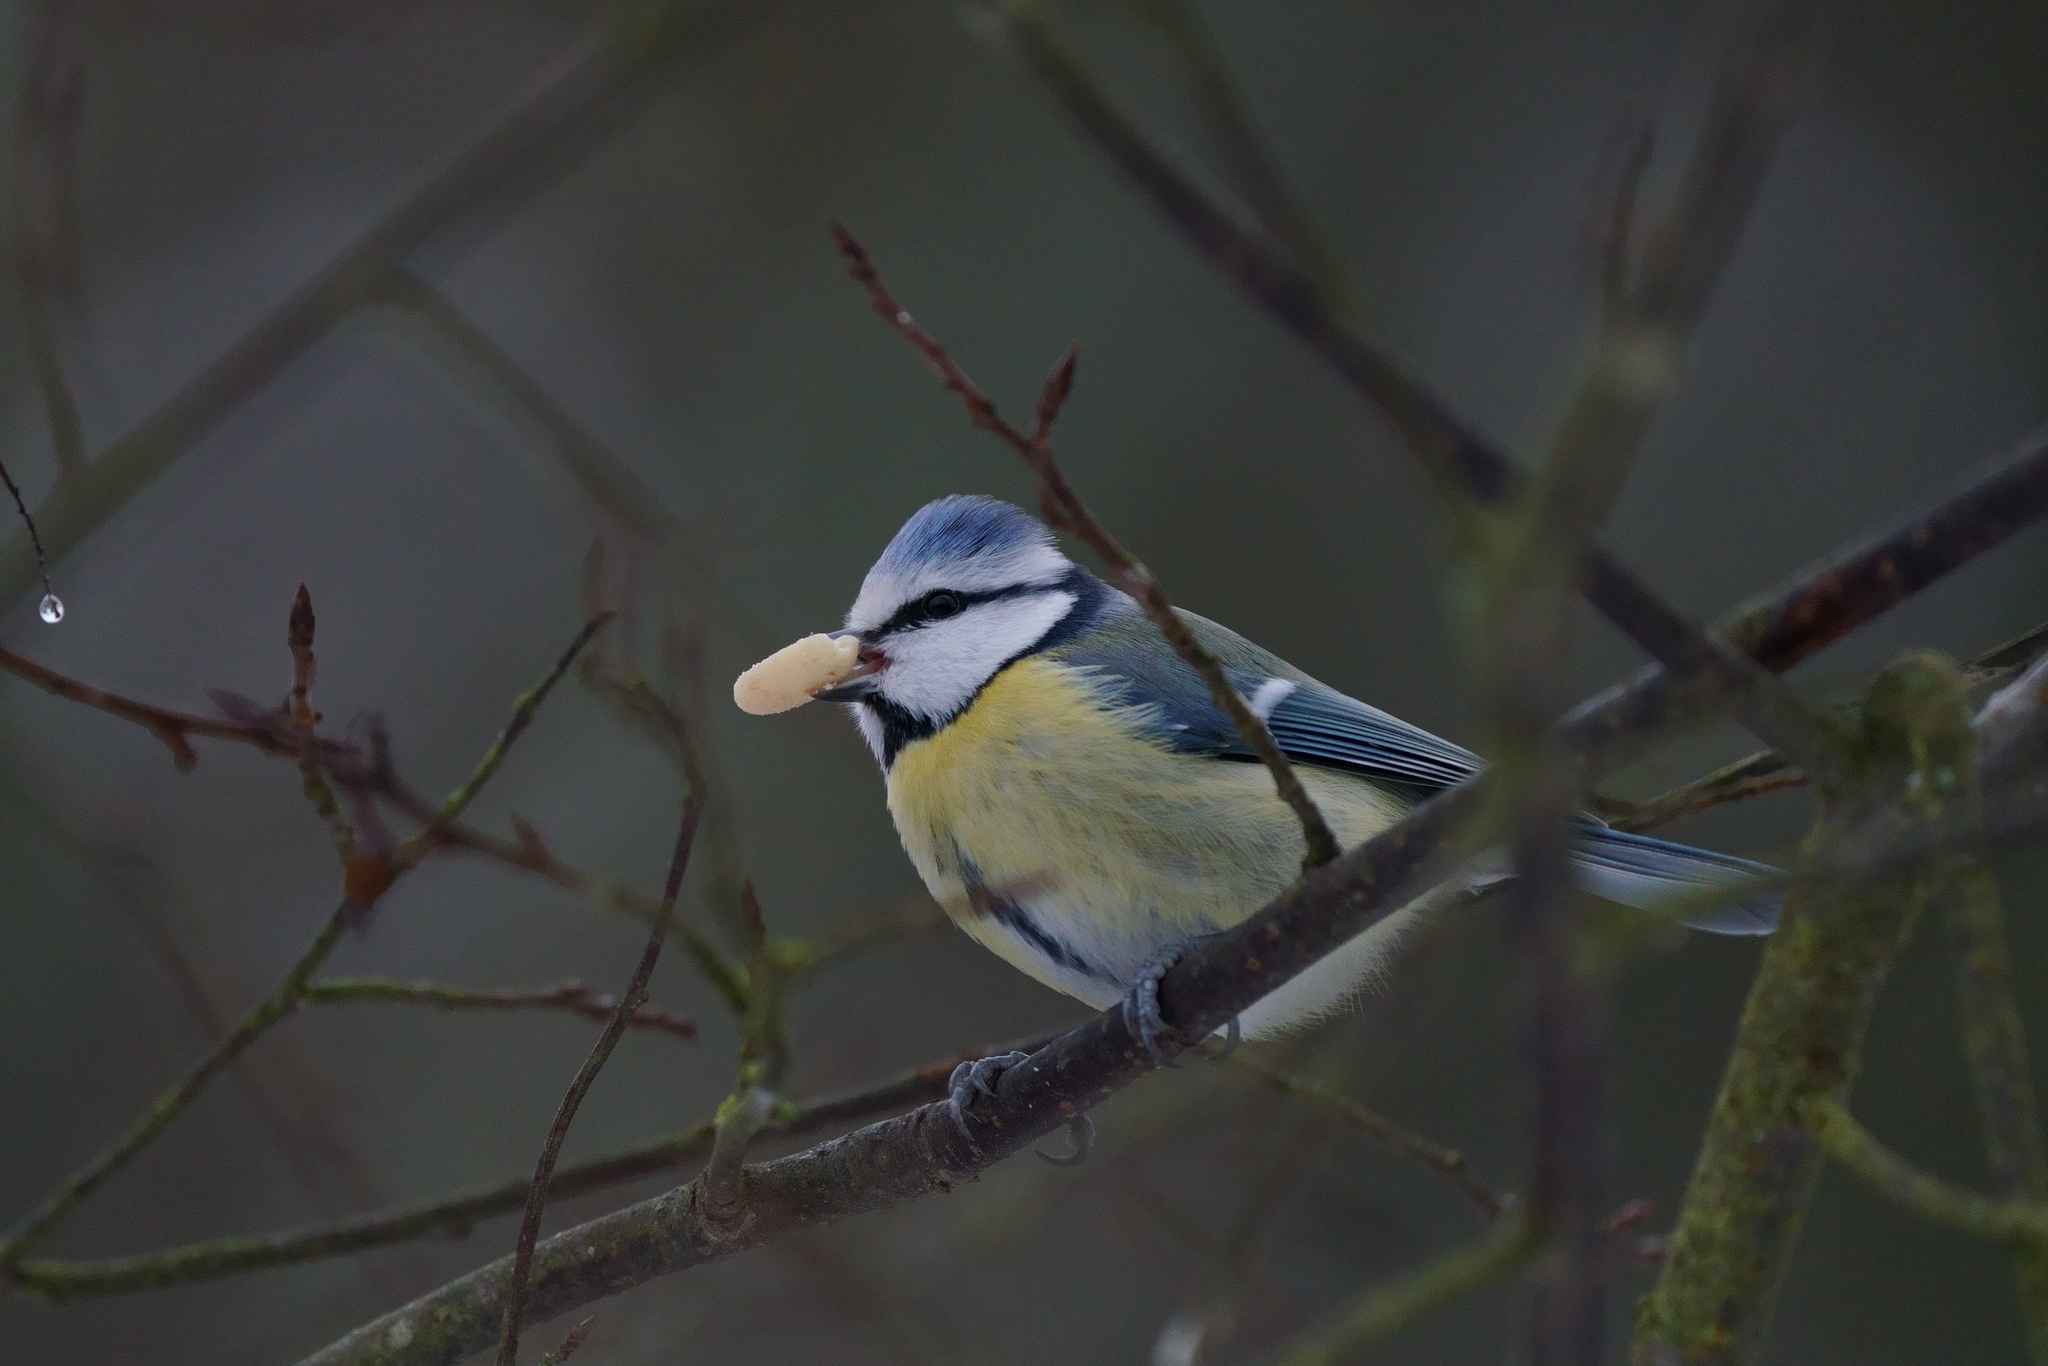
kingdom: Animalia
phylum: Chordata
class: Aves
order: Passeriformes
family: Paridae
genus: Cyanistes
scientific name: Cyanistes caeruleus
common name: Eurasian blue tit
